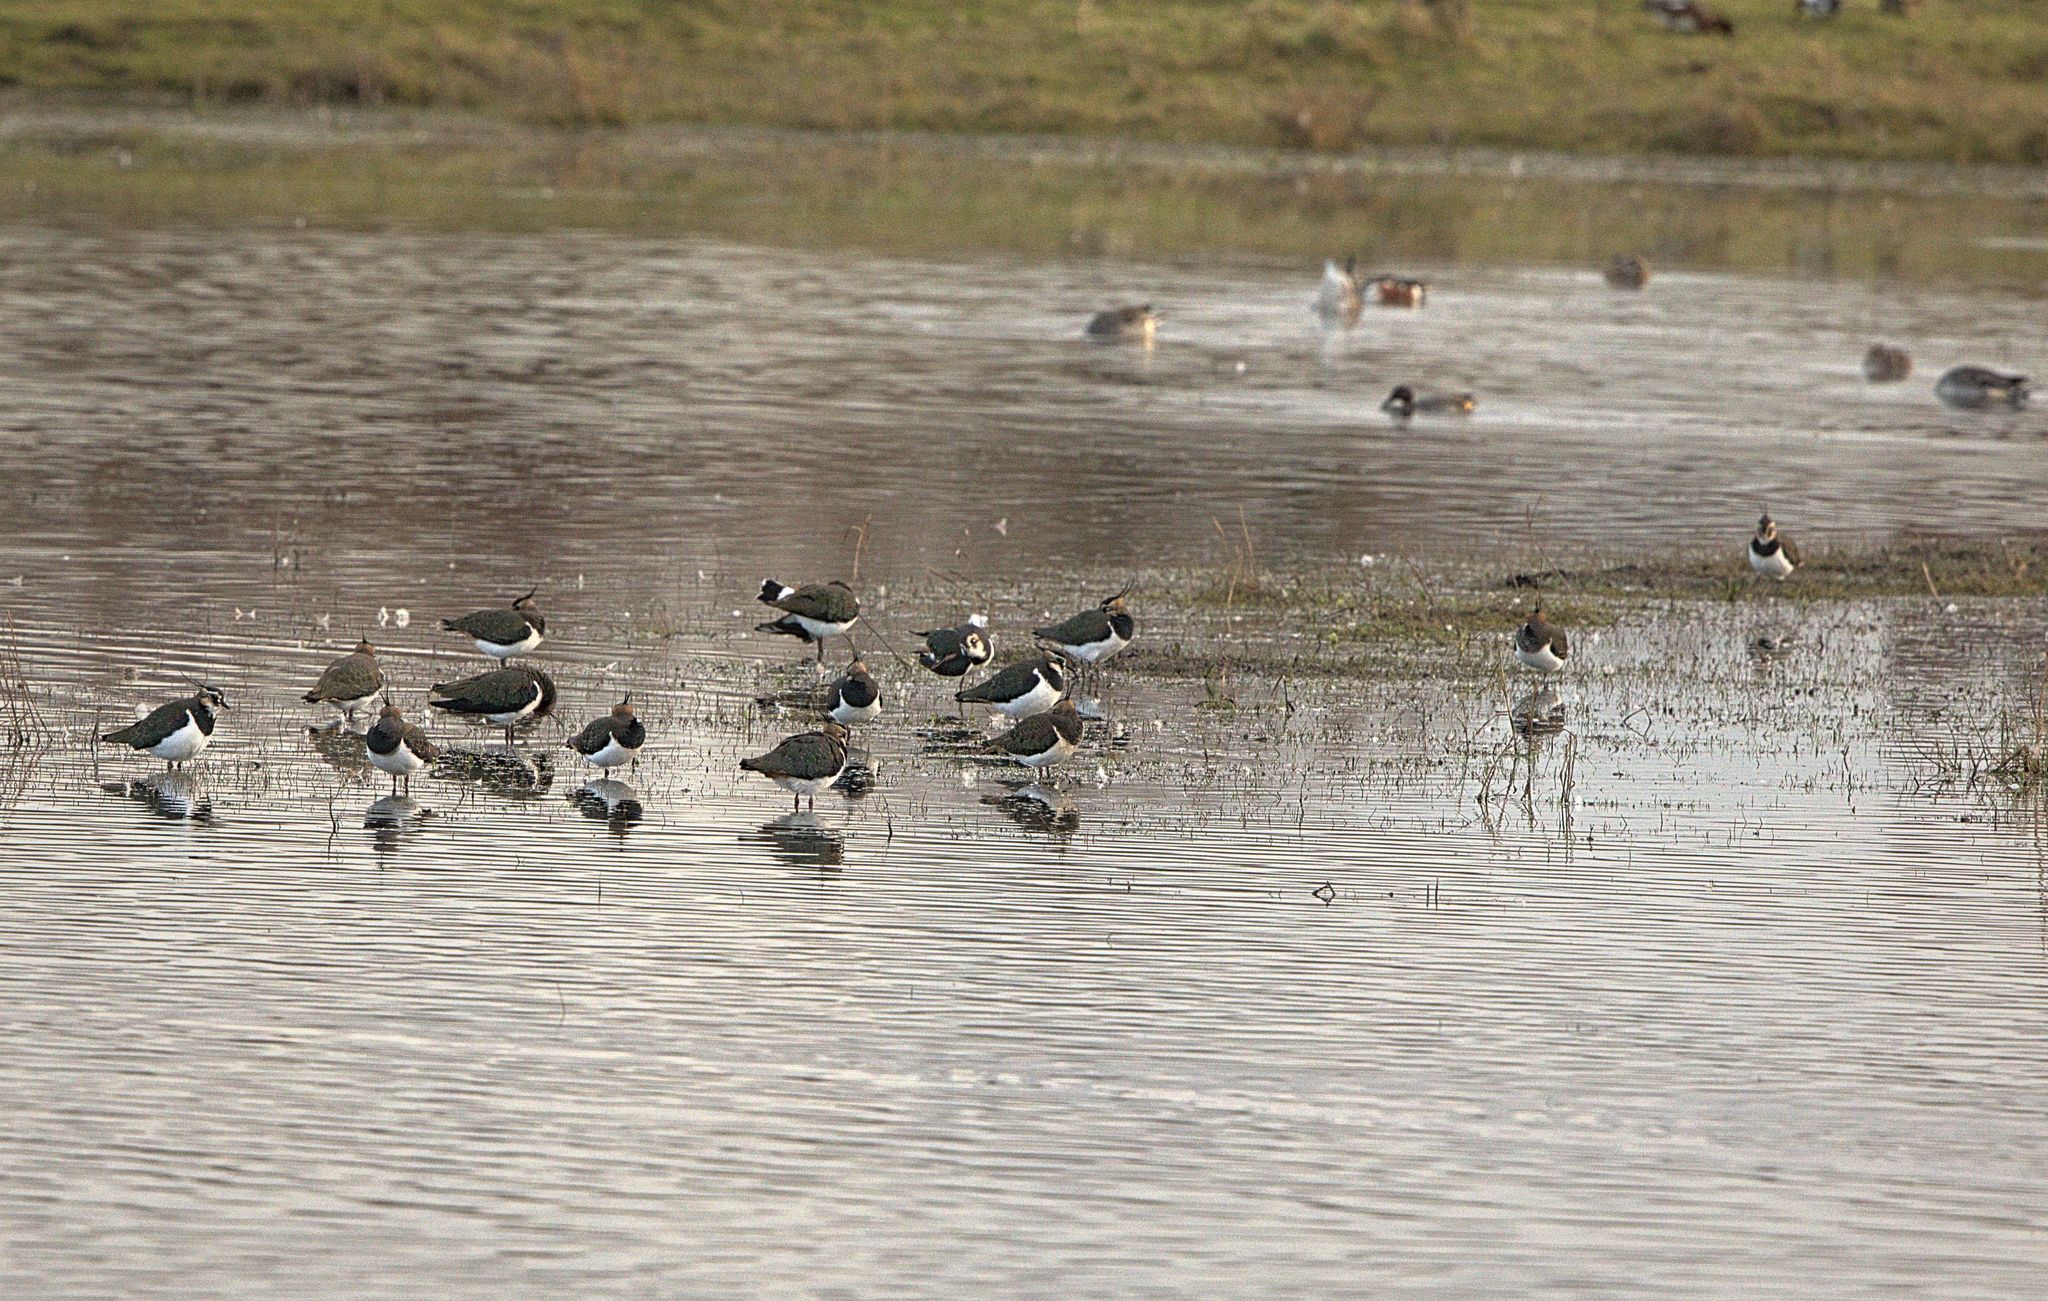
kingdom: Animalia
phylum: Chordata
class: Aves
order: Charadriiformes
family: Charadriidae
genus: Vanellus
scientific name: Vanellus vanellus
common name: Northern lapwing
